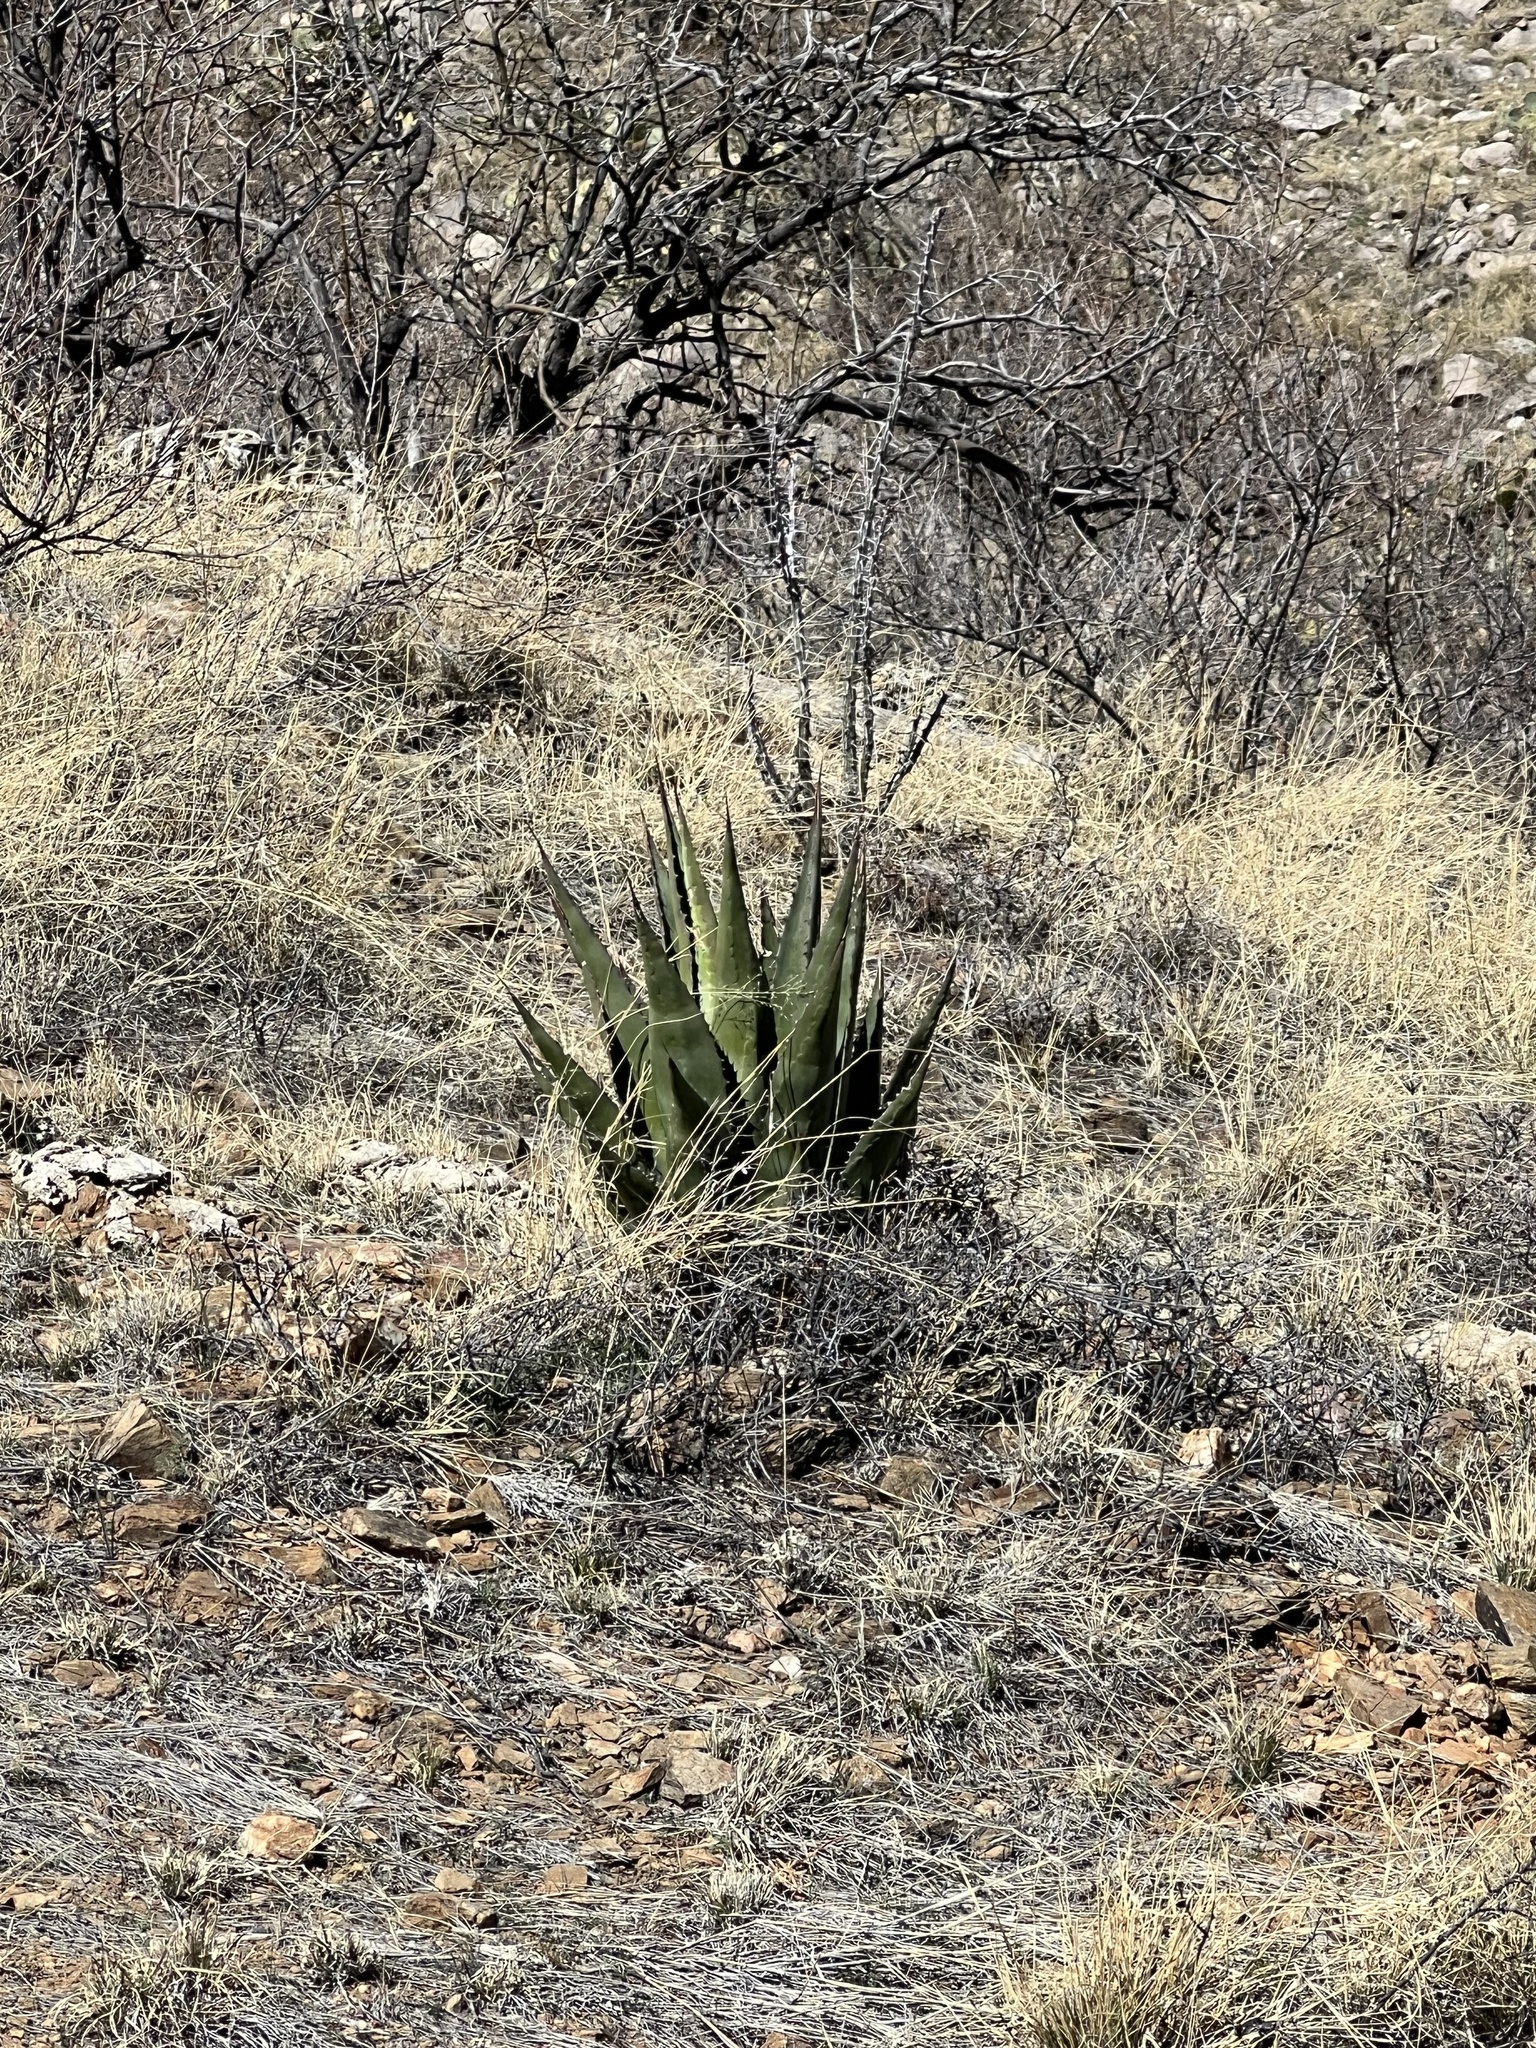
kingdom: Plantae
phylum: Tracheophyta
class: Liliopsida
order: Asparagales
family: Asparagaceae
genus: Agave
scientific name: Agave palmeri
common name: Palmer agave
